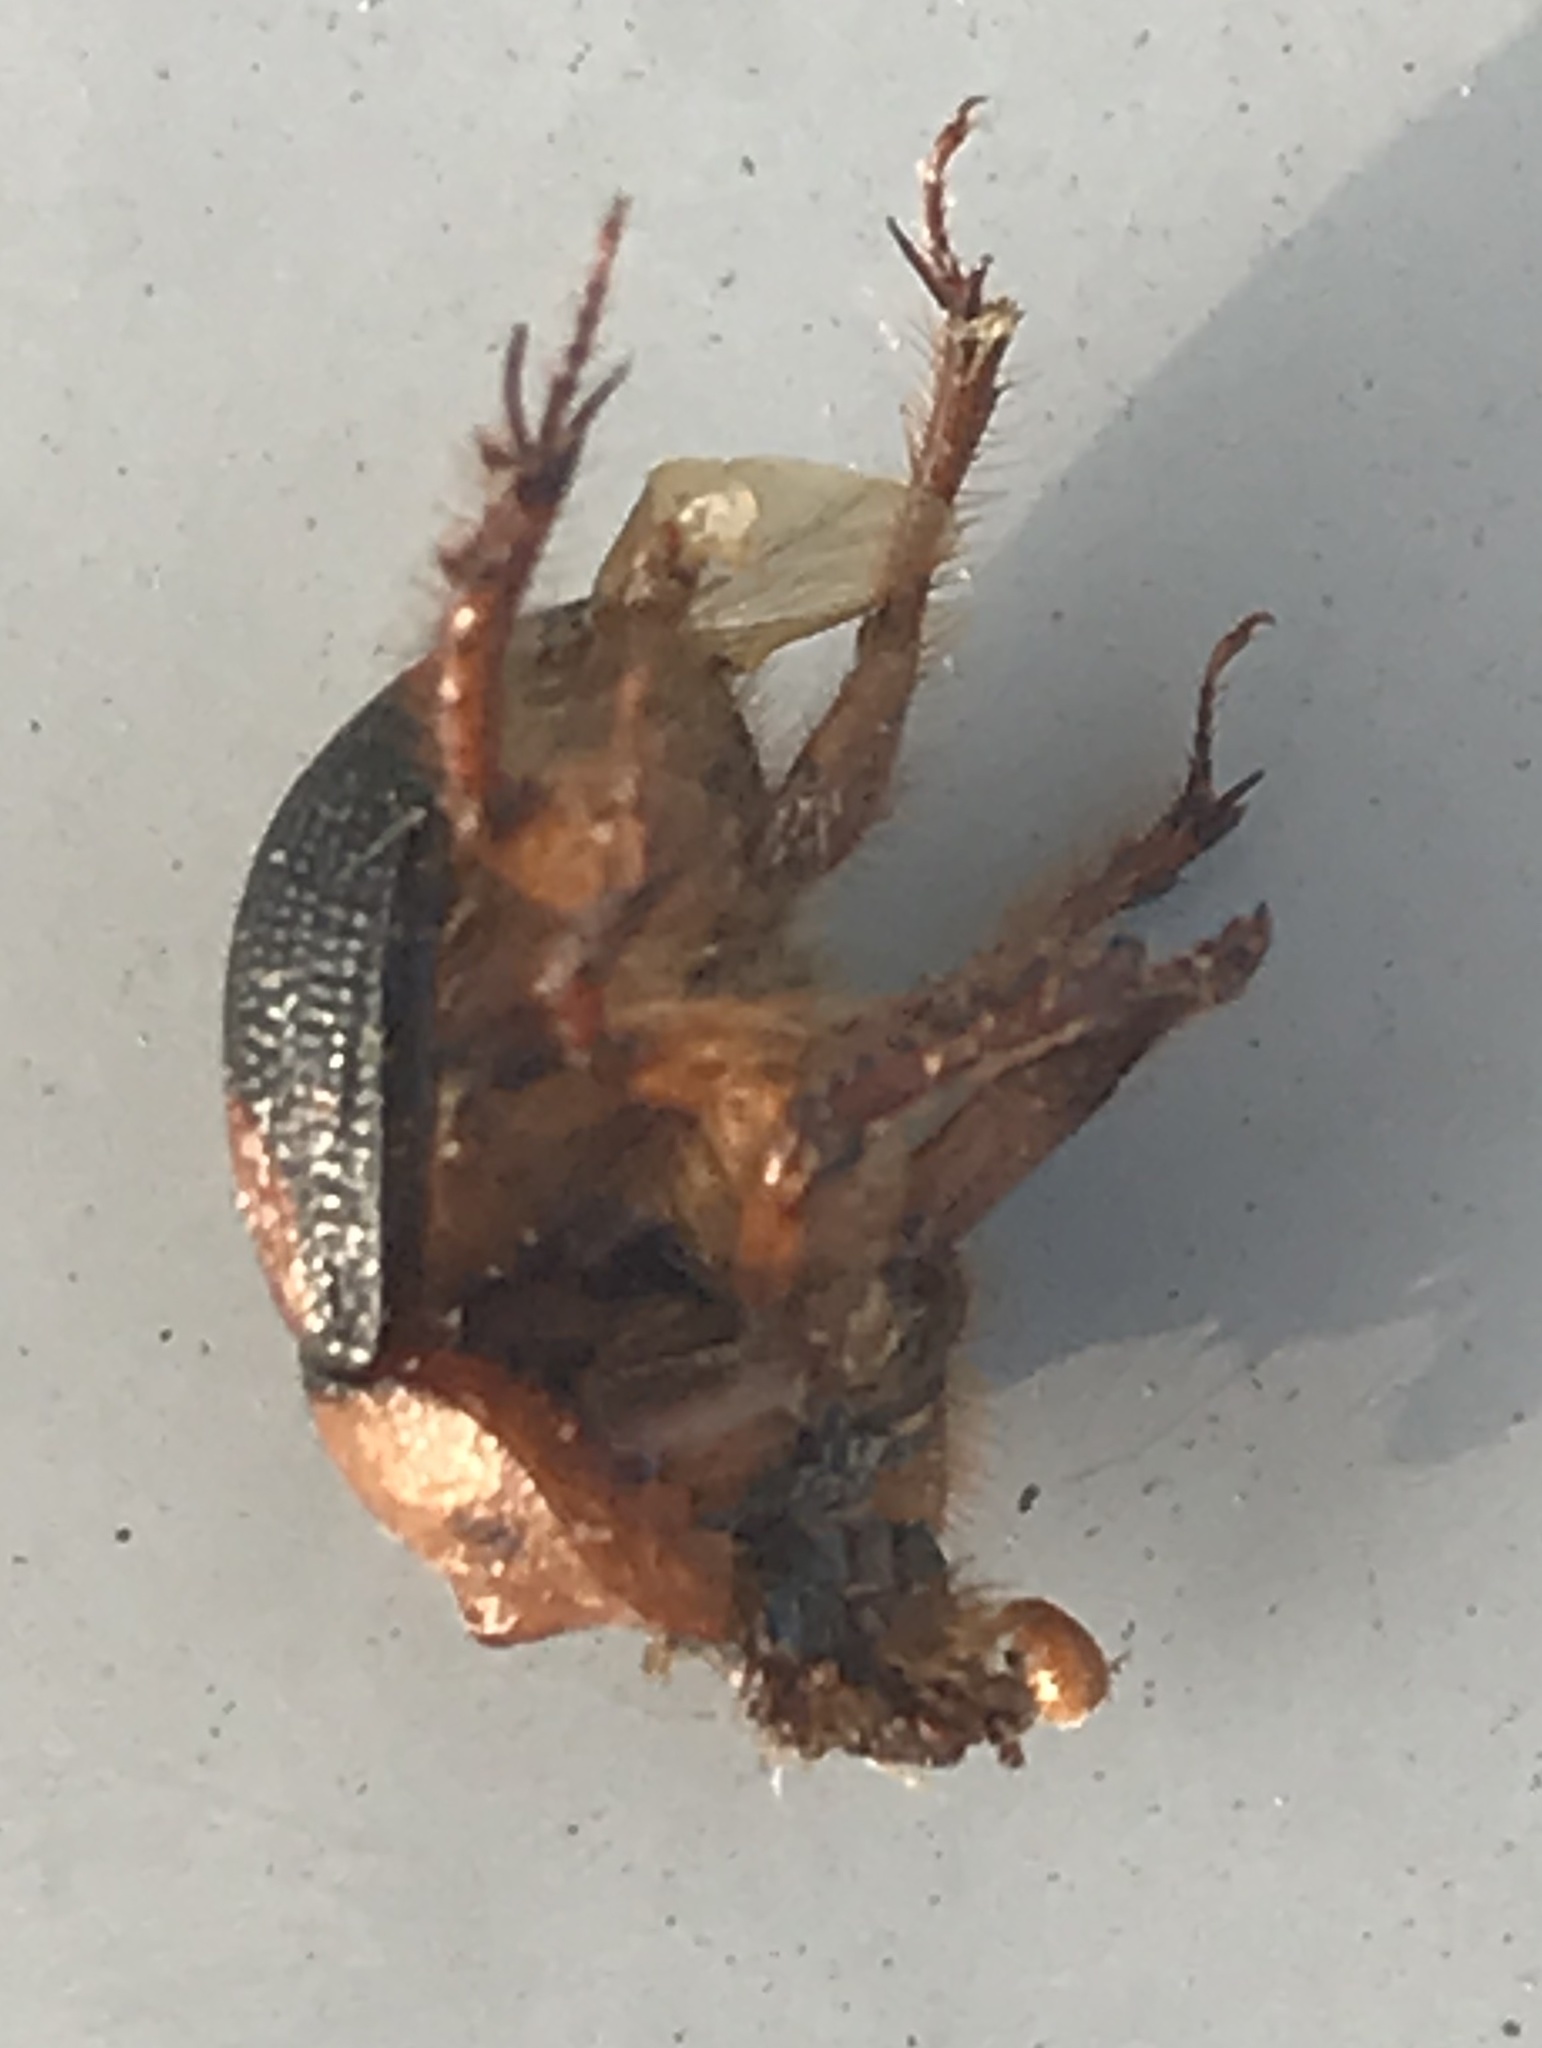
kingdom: Animalia
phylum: Arthropoda
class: Insecta
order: Coleoptera
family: Geotrupidae
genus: Bolbocerosoma
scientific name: Bolbocerosoma bruneri
